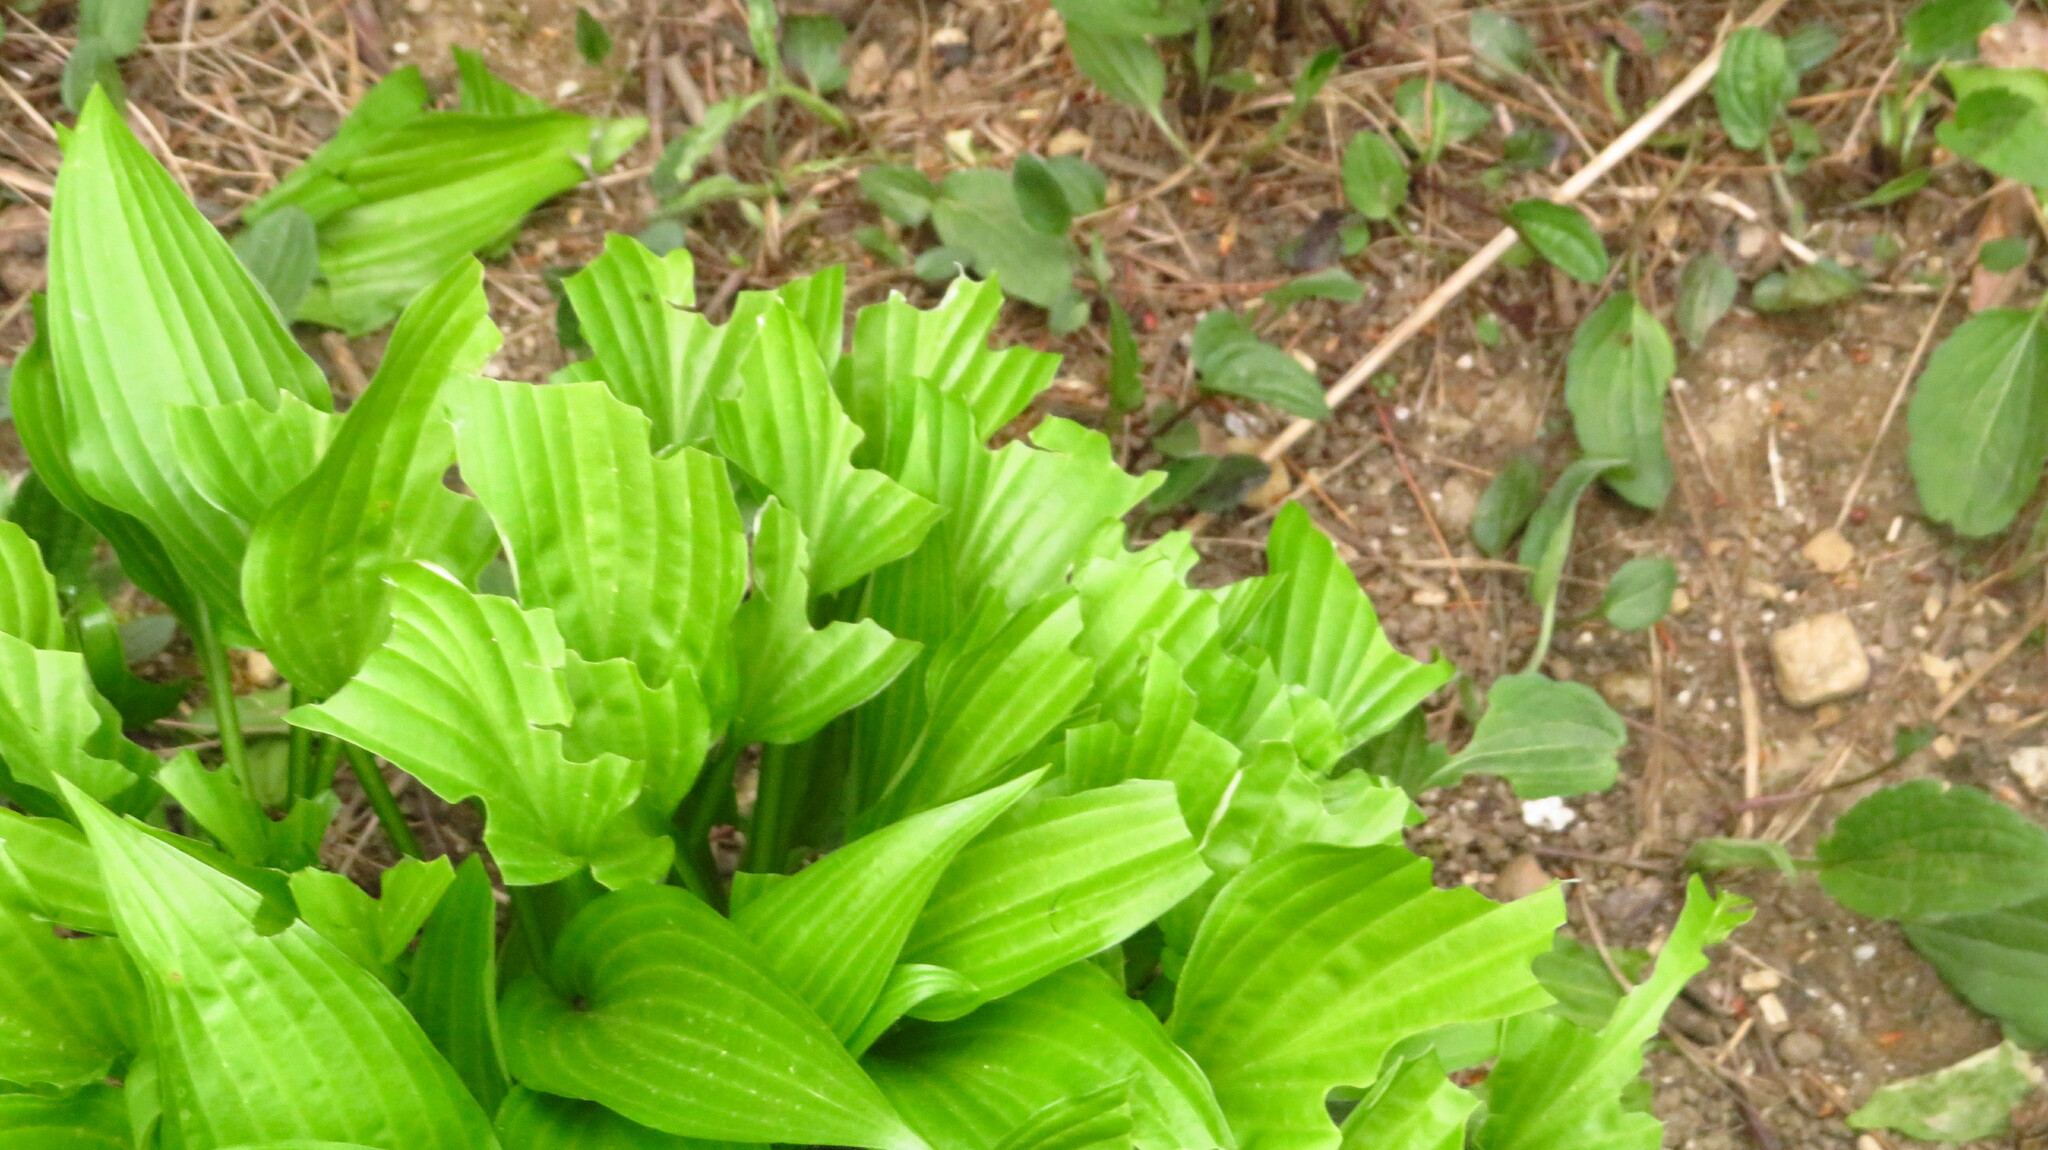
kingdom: Animalia
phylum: Chordata
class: Mammalia
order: Artiodactyla
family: Cervidae
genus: Odocoileus
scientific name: Odocoileus virginianus
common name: White-tailed deer
